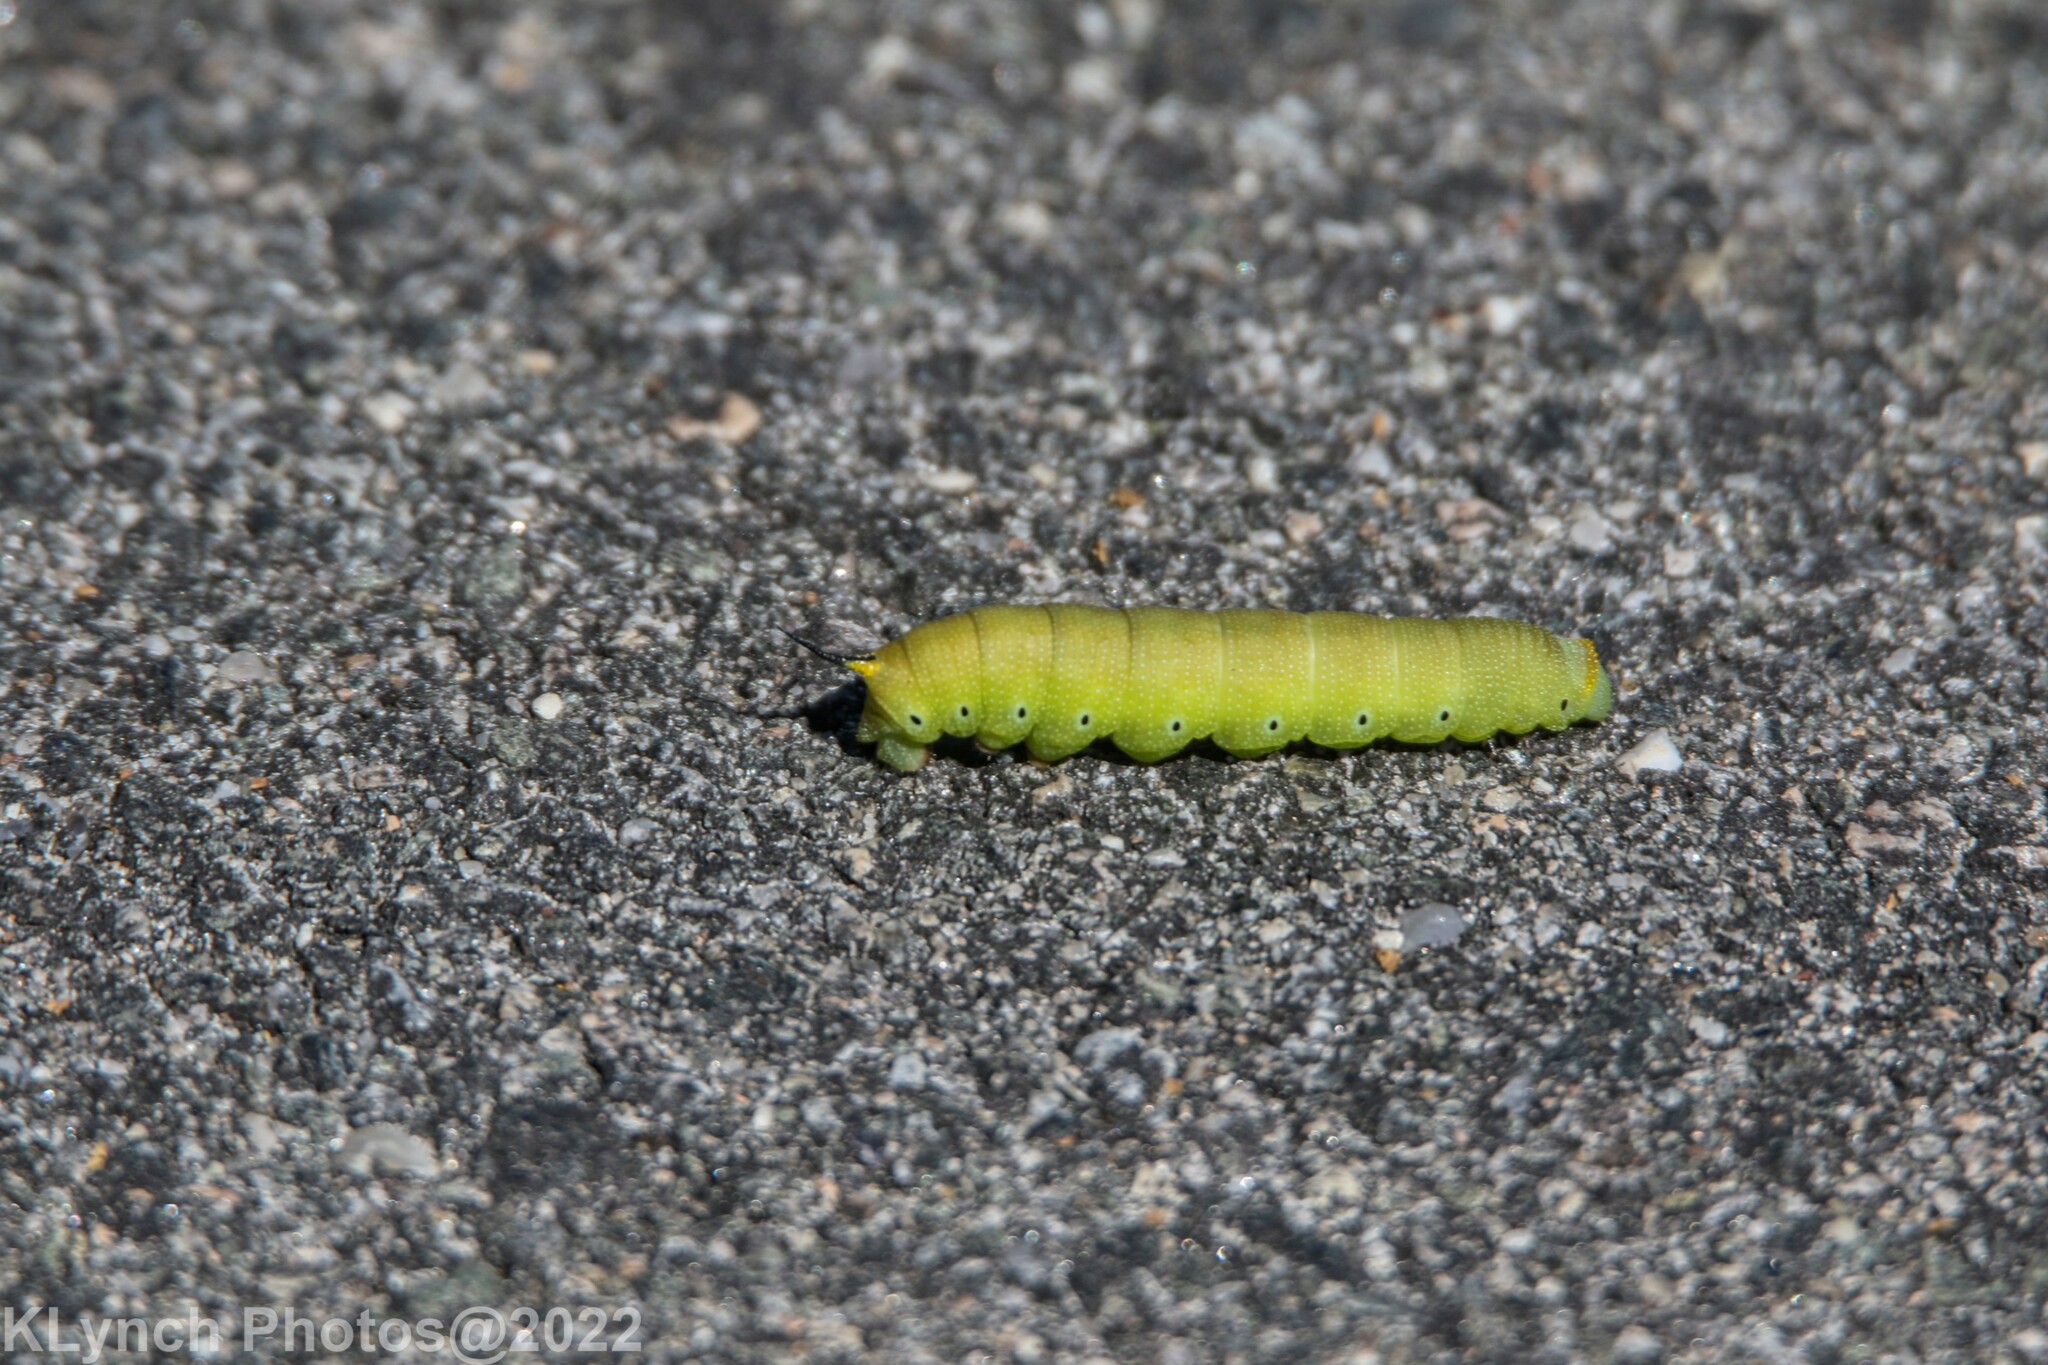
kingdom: Animalia
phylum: Arthropoda
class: Insecta
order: Lepidoptera
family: Sphingidae
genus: Hemaris
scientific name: Hemaris diffinis
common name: Bumblebee moth
